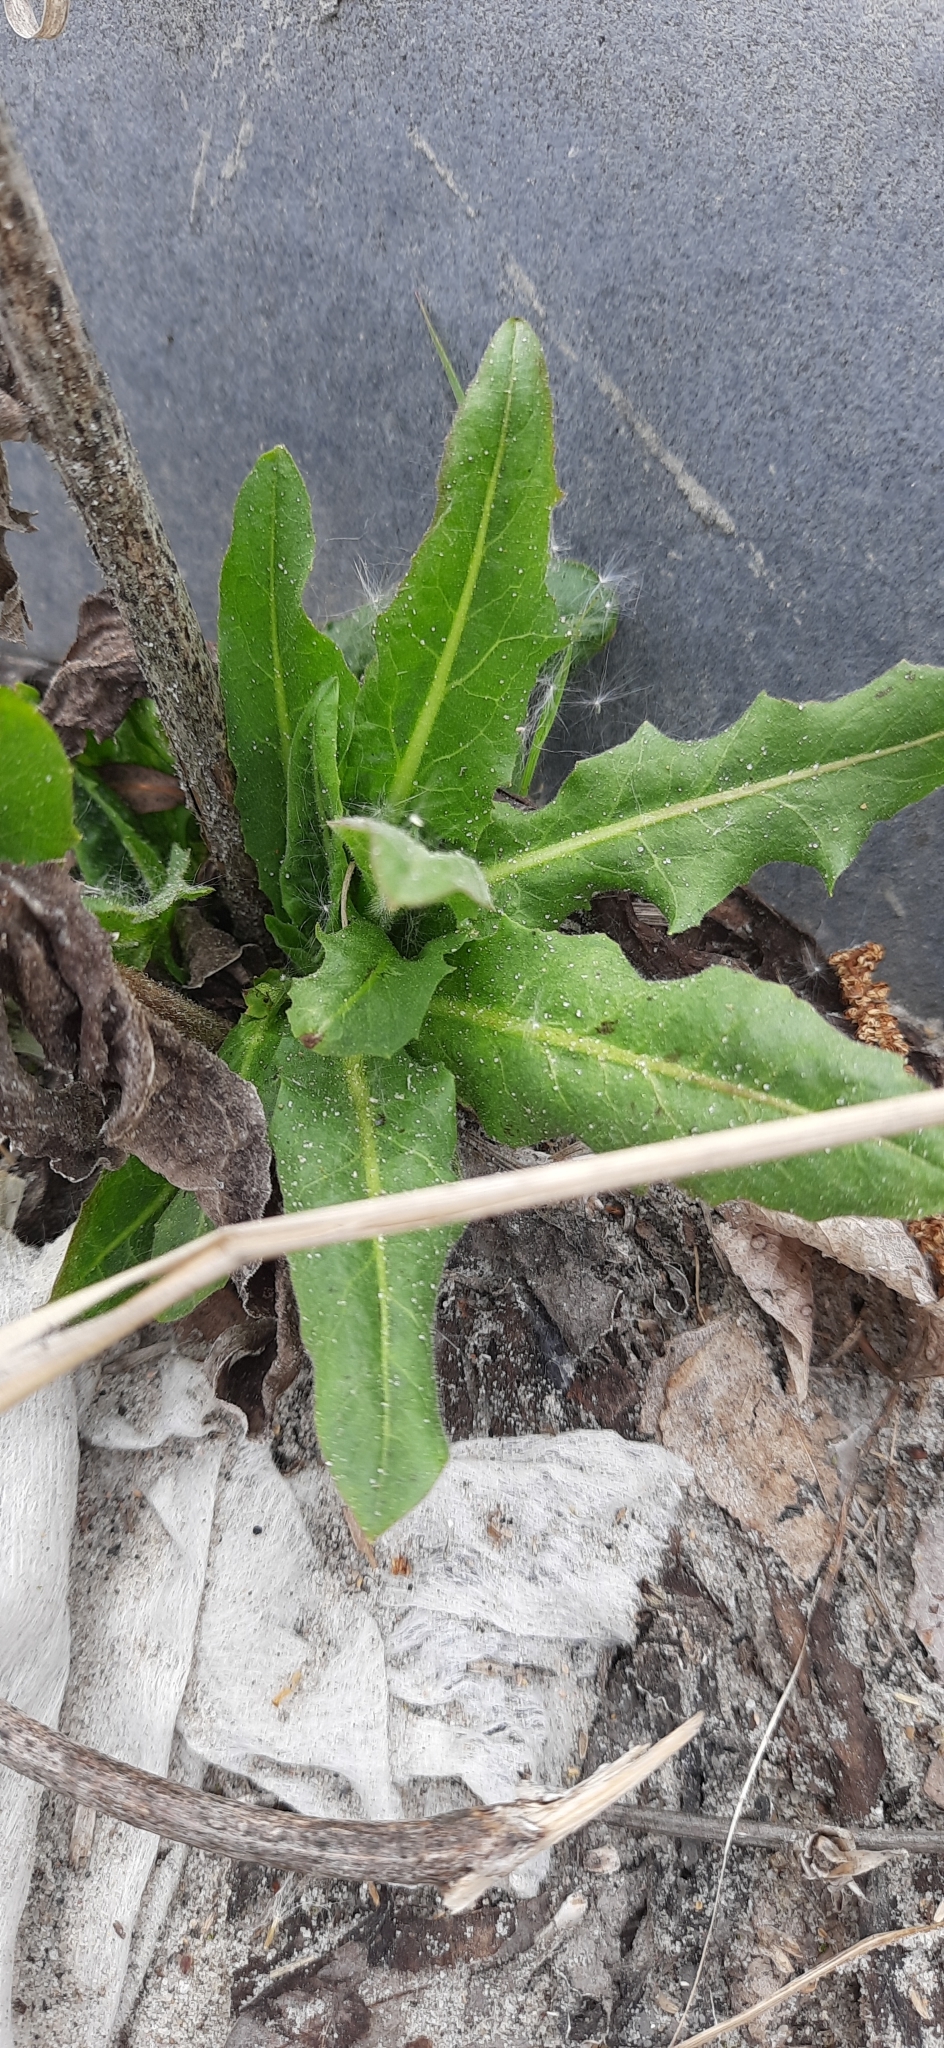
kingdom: Plantae
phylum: Tracheophyta
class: Magnoliopsida
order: Asterales
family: Asteraceae
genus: Cichorium
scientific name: Cichorium intybus
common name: Chicory
